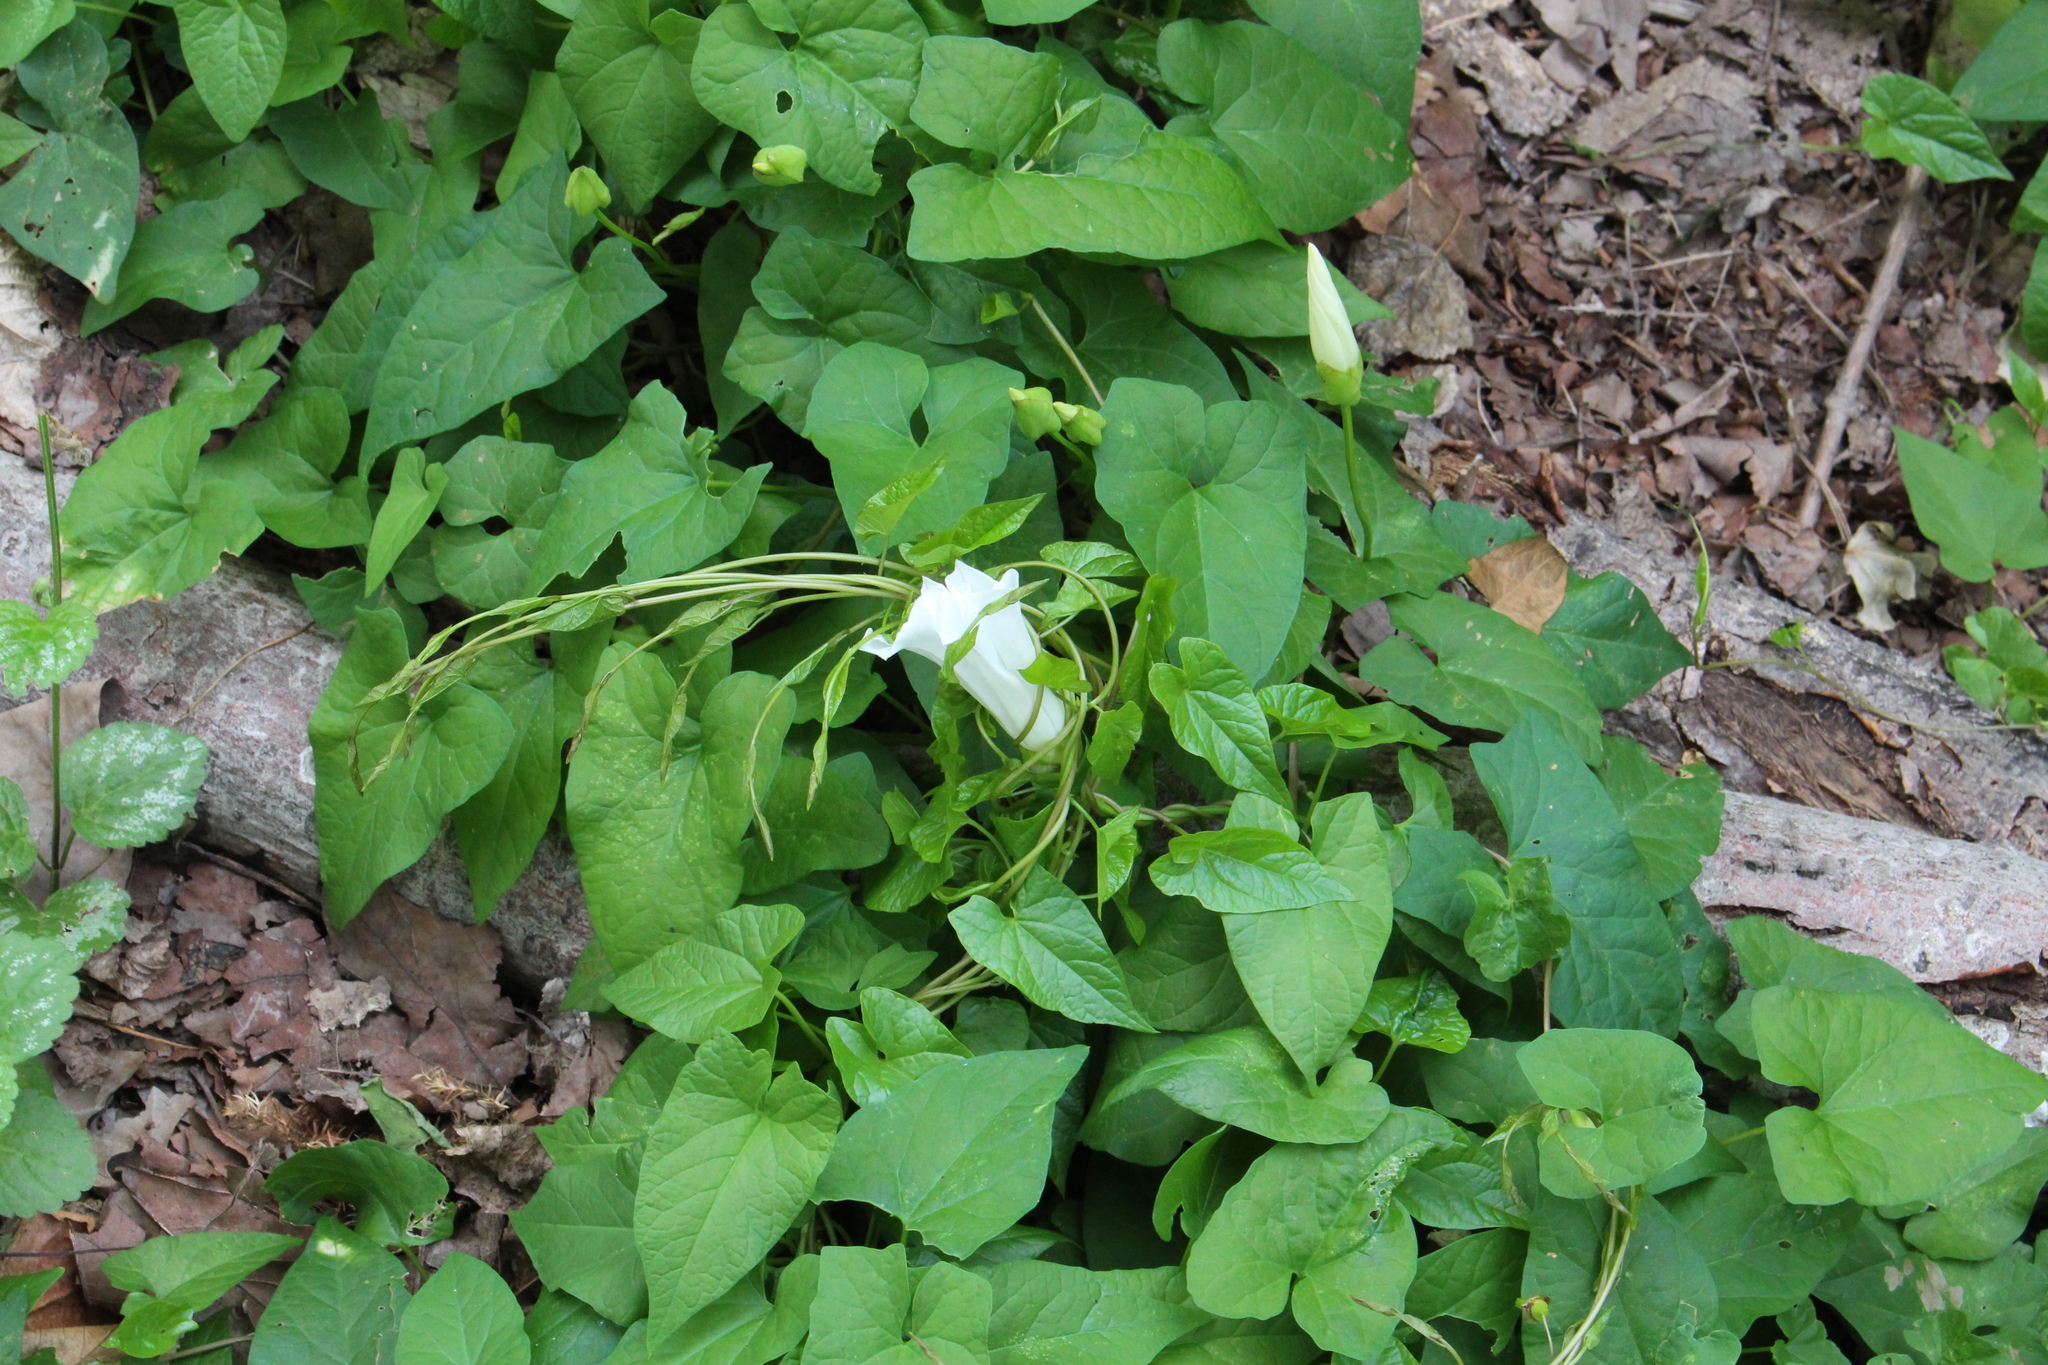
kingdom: Plantae
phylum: Tracheophyta
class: Magnoliopsida
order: Solanales
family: Convolvulaceae
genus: Calystegia
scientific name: Calystegia silvatica
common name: Large bindweed
